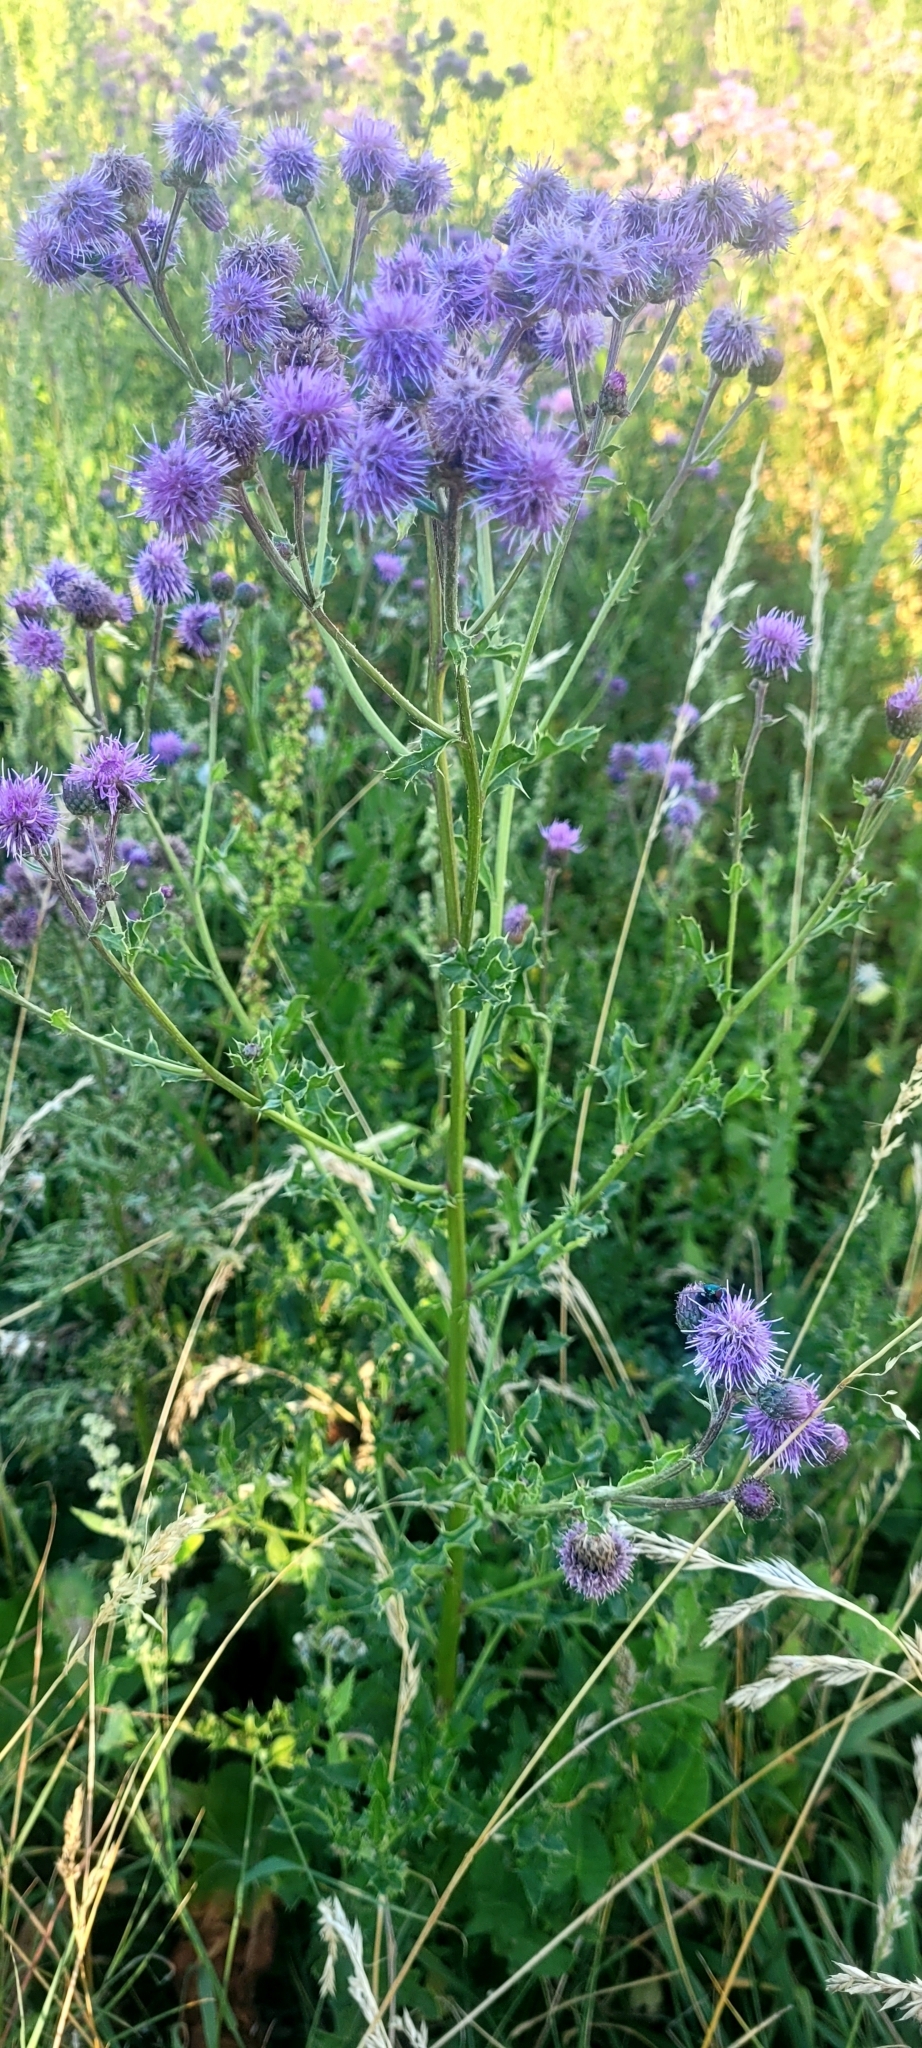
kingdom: Plantae
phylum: Tracheophyta
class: Magnoliopsida
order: Asterales
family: Asteraceae
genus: Cirsium
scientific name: Cirsium arvense
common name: Creeping thistle
